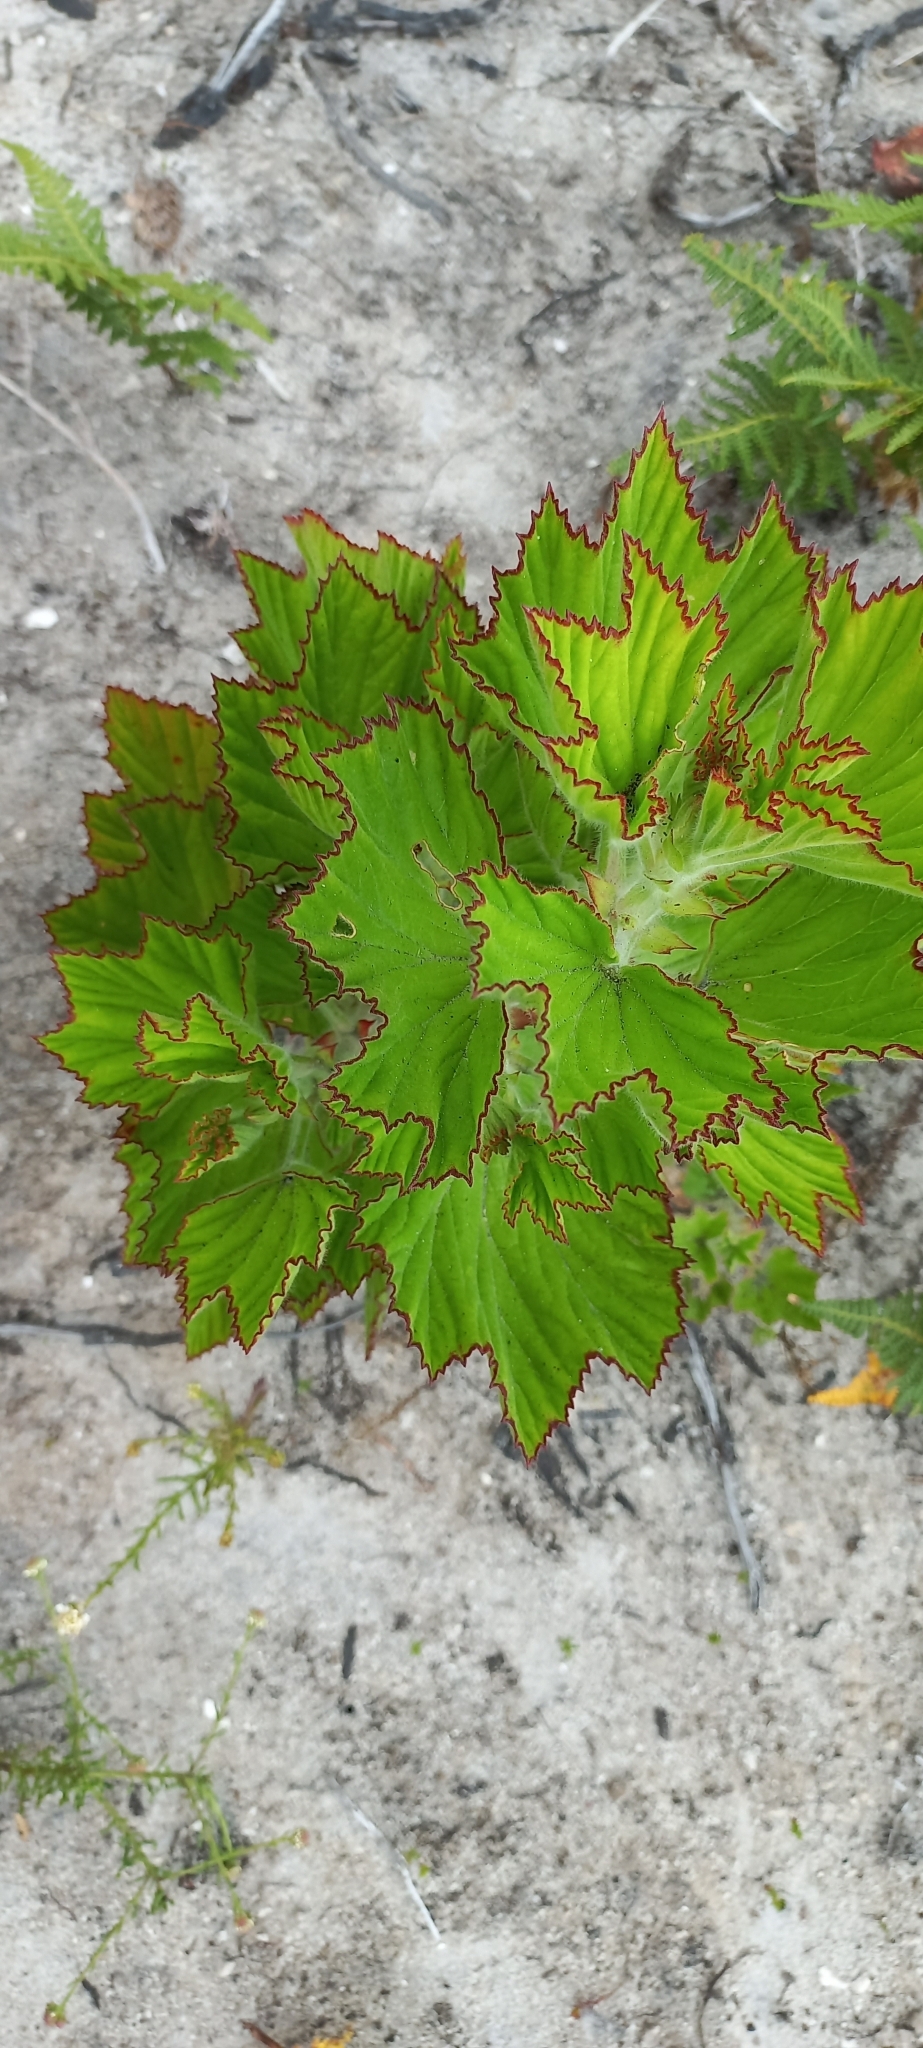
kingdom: Plantae
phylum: Tracheophyta
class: Magnoliopsida
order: Geraniales
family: Geraniaceae
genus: Pelargonium
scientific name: Pelargonium cucullatum
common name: Tree pelargonium
